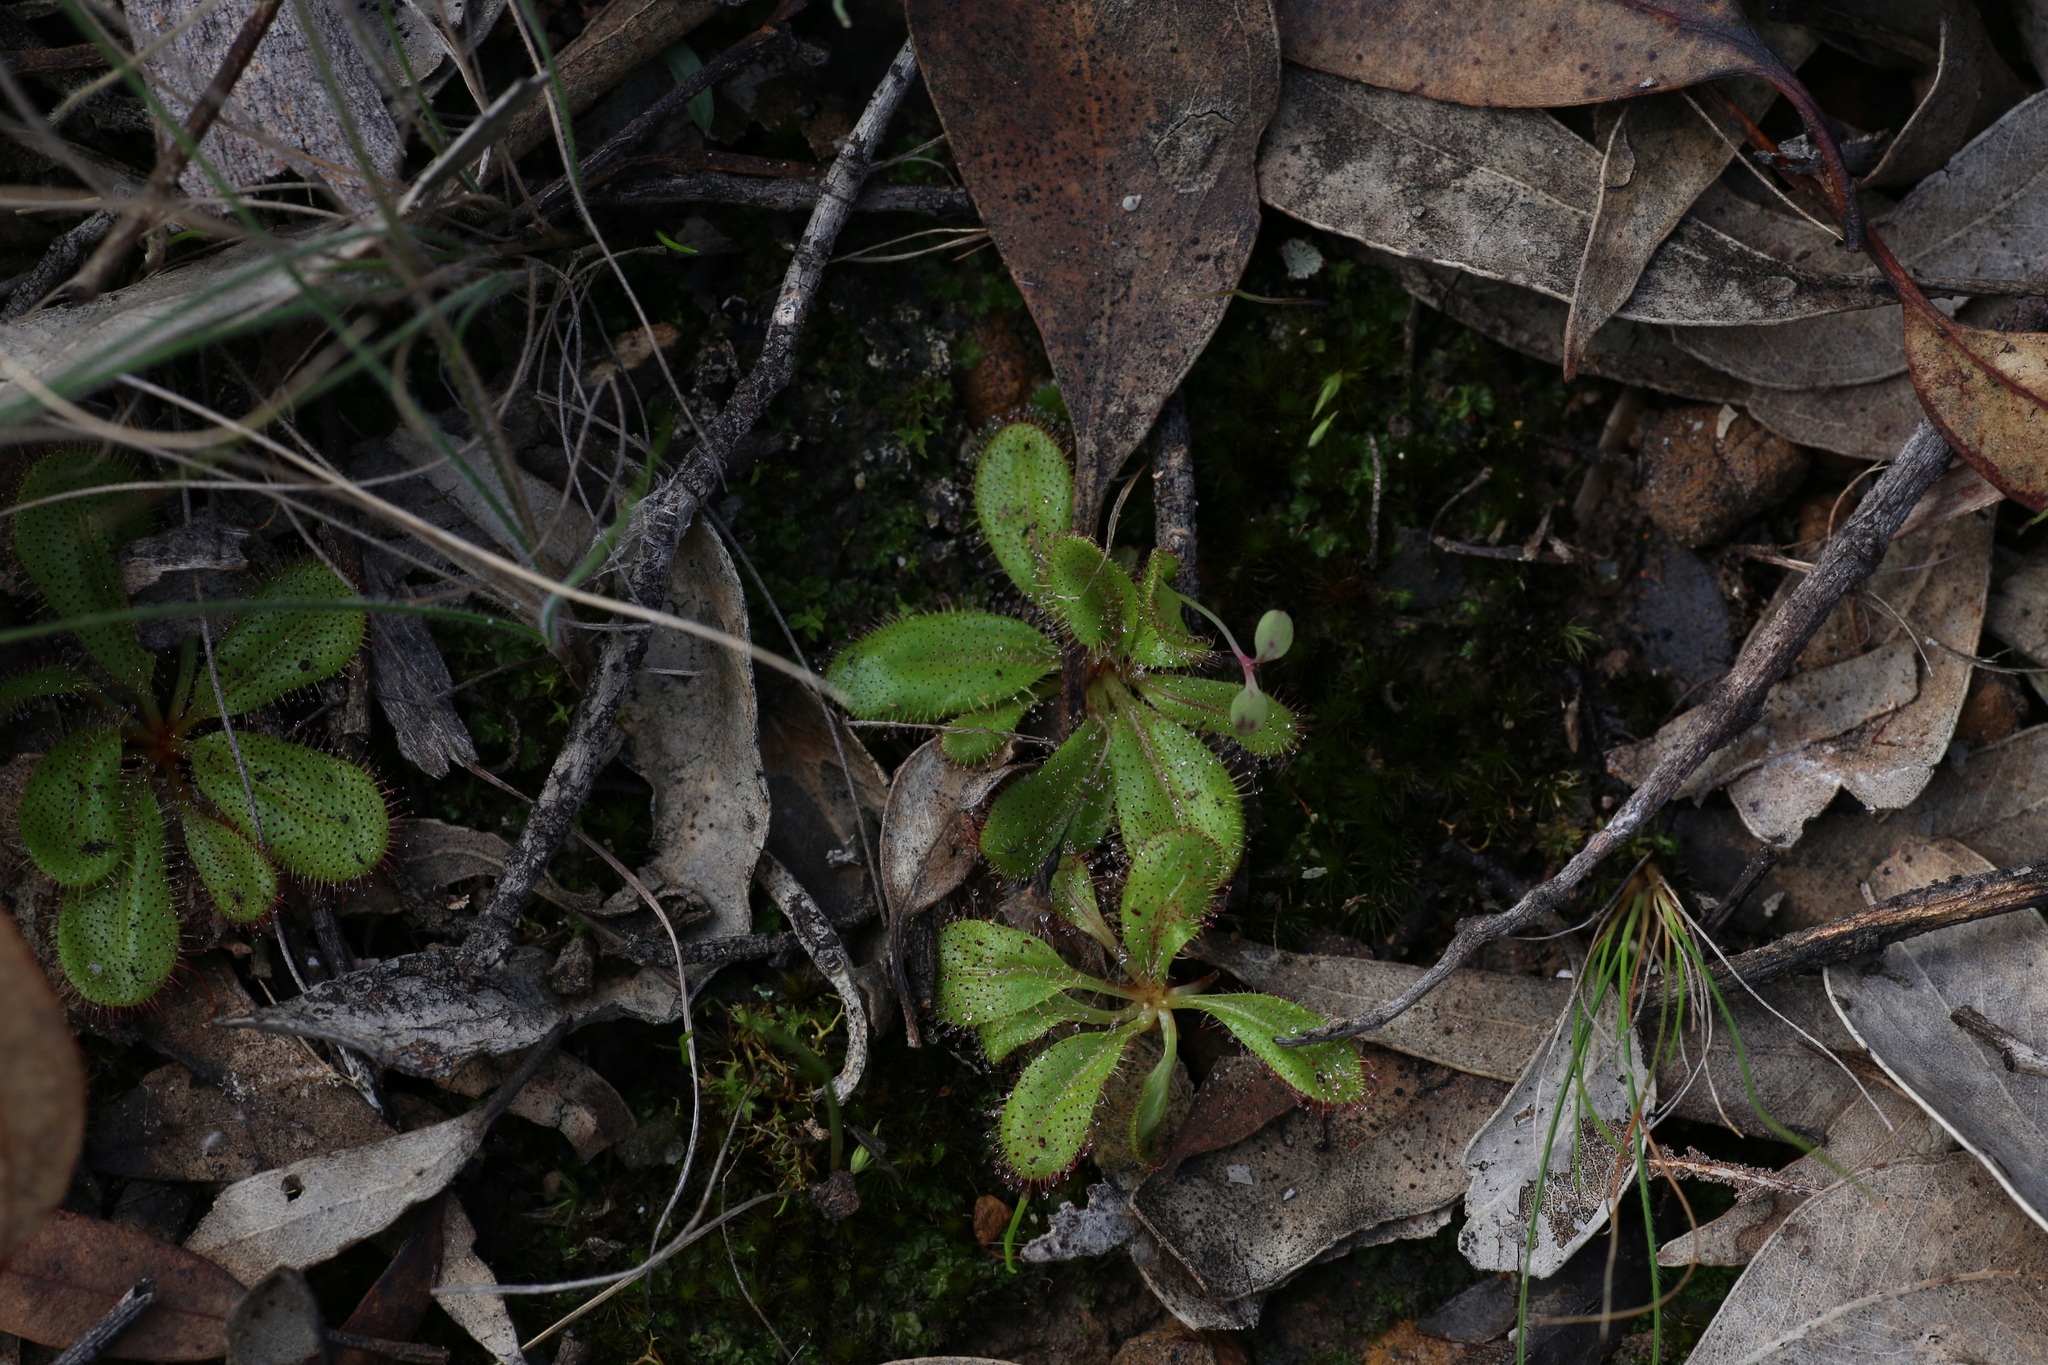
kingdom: Plantae
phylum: Tracheophyta
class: Magnoliopsida
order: Caryophyllales
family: Droseraceae
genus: Drosera
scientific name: Drosera tubaestylis
